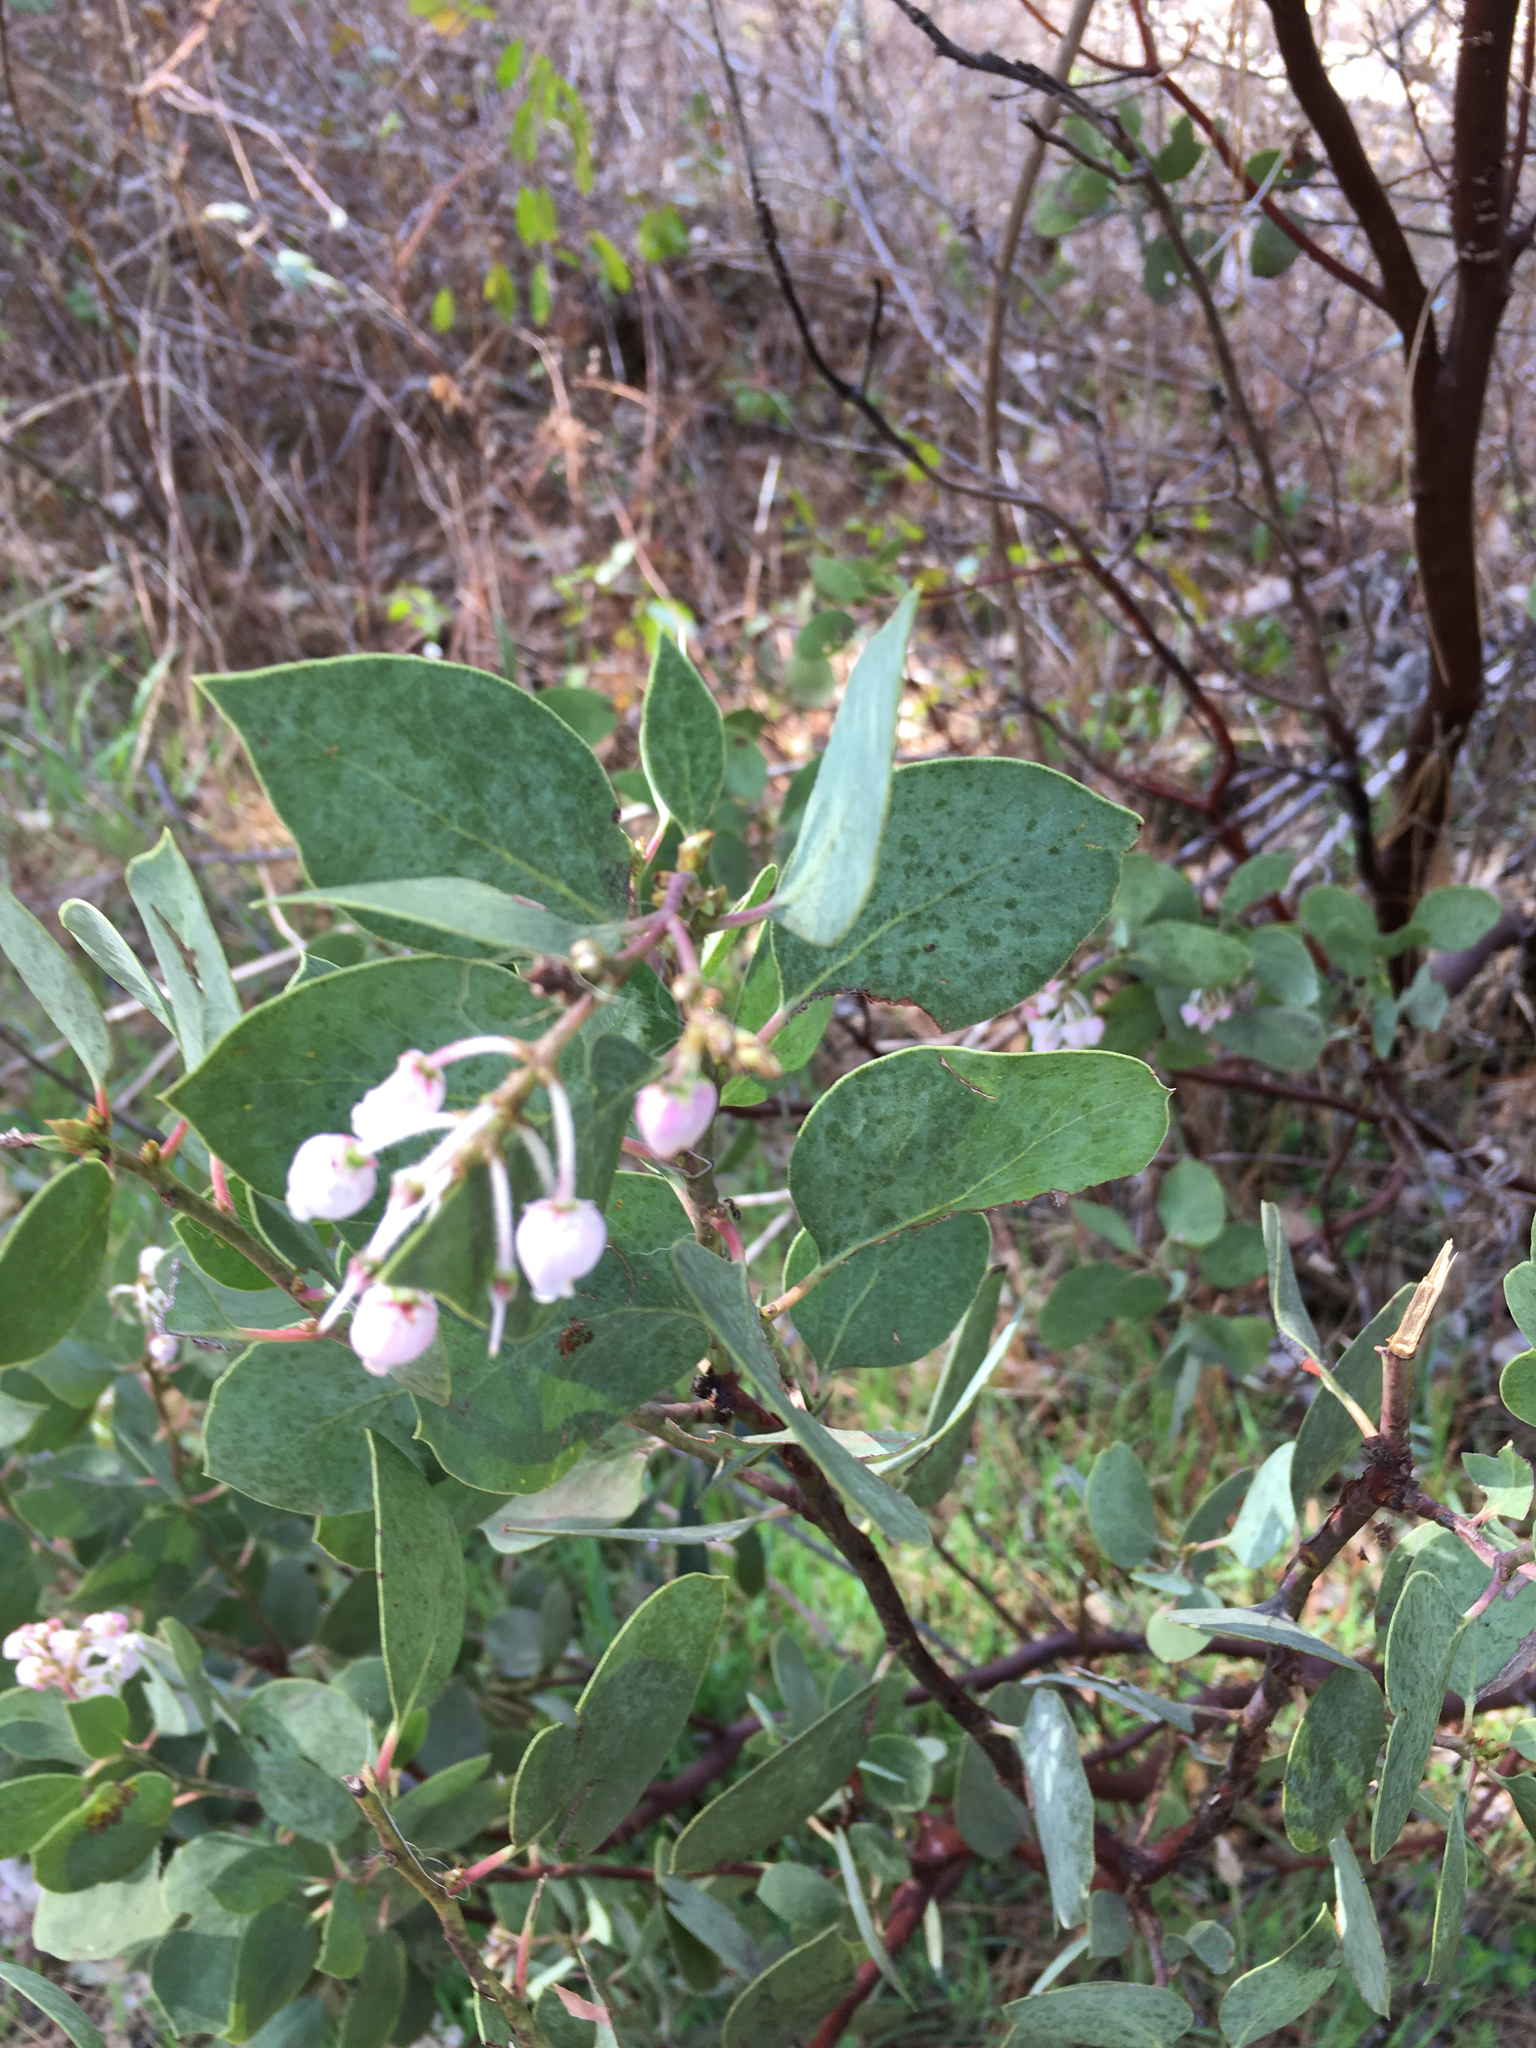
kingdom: Plantae
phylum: Tracheophyta
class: Magnoliopsida
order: Ericales
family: Ericaceae
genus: Arctostaphylos
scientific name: Arctostaphylos viscida
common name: White-leaf manzanita
